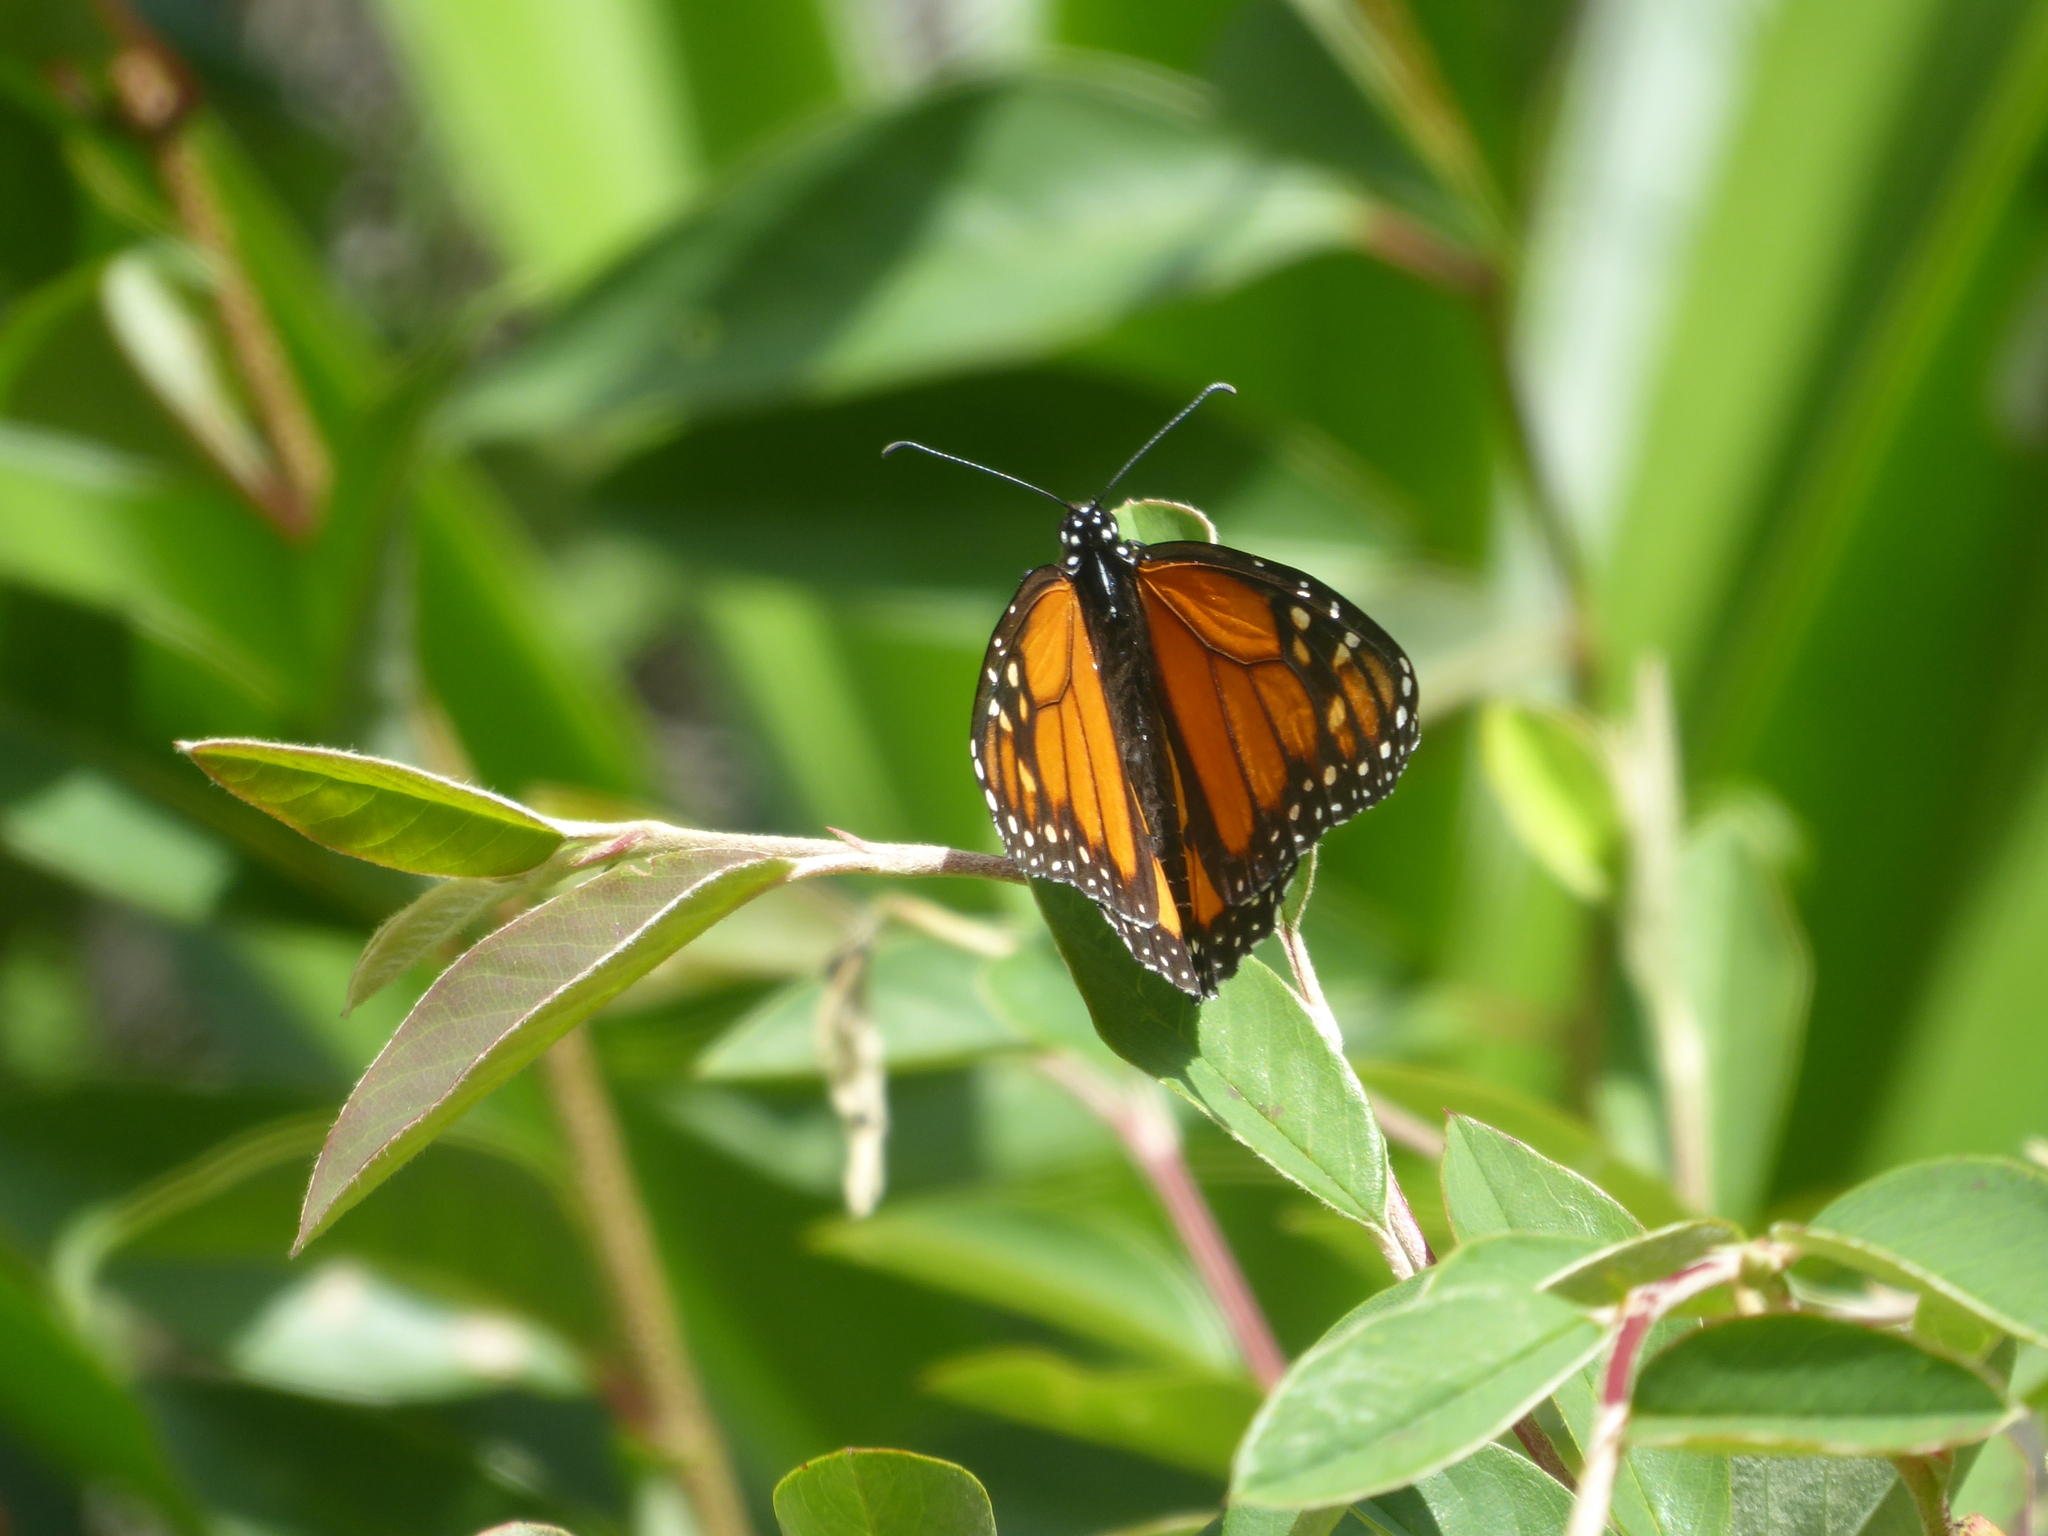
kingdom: Animalia
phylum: Arthropoda
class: Insecta
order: Lepidoptera
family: Nymphalidae
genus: Danaus
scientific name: Danaus plexippus
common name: Monarch
